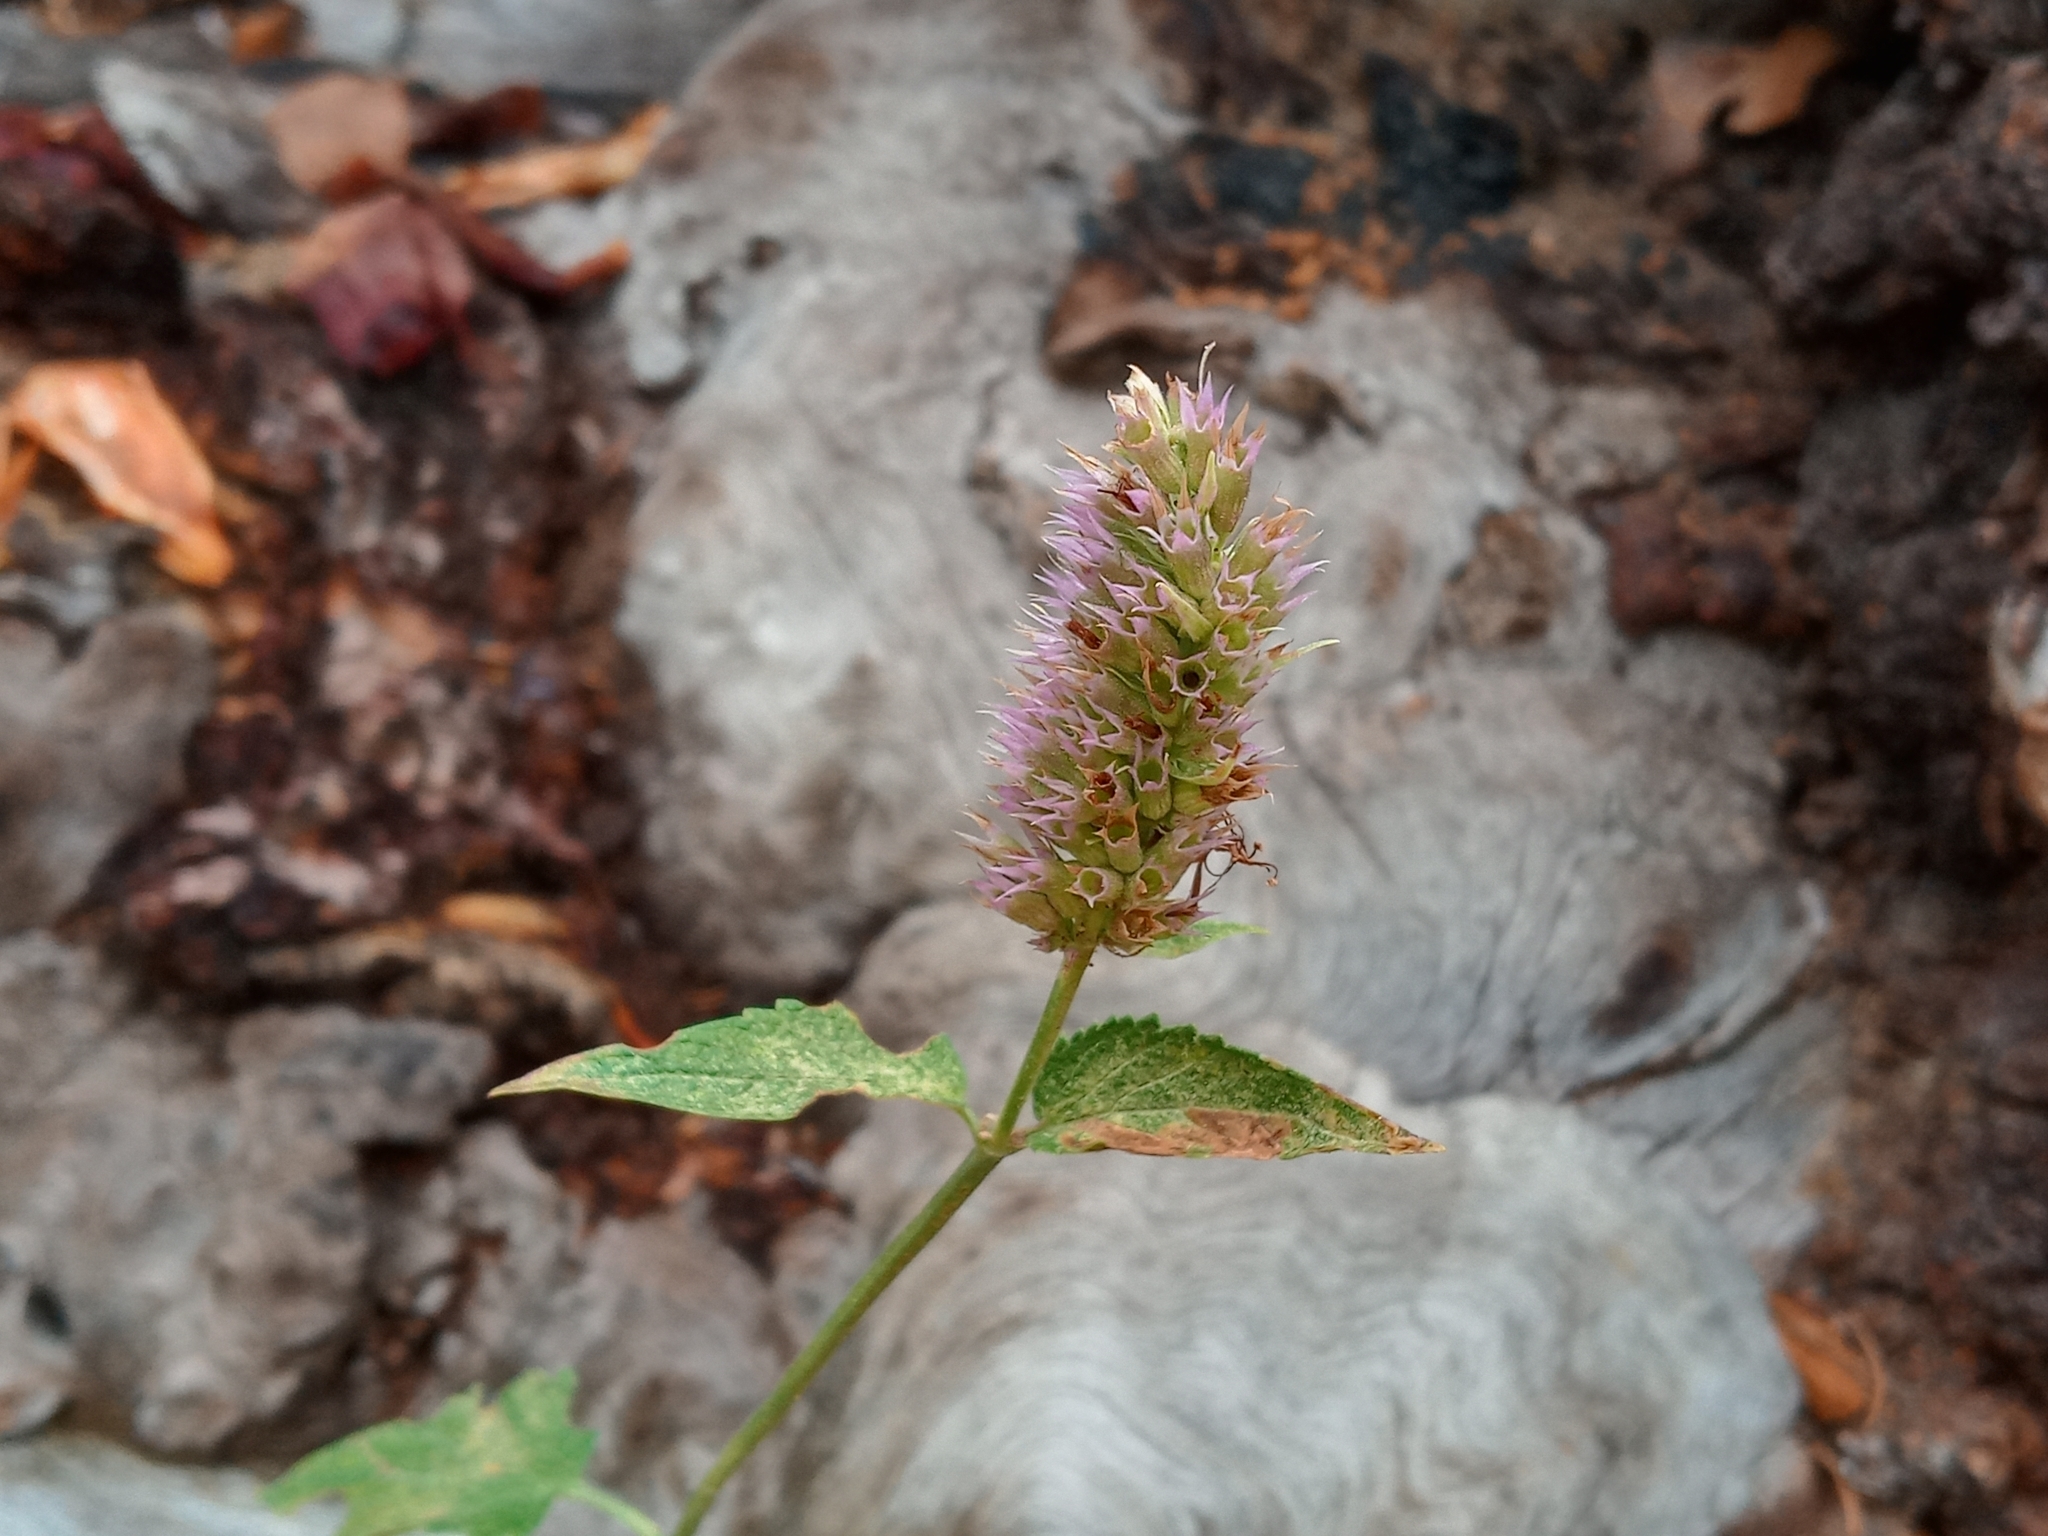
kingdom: Plantae
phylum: Tracheophyta
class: Magnoliopsida
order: Lamiales
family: Lamiaceae
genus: Agastache
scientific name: Agastache urticifolia
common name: Horsemint giant hyssop
